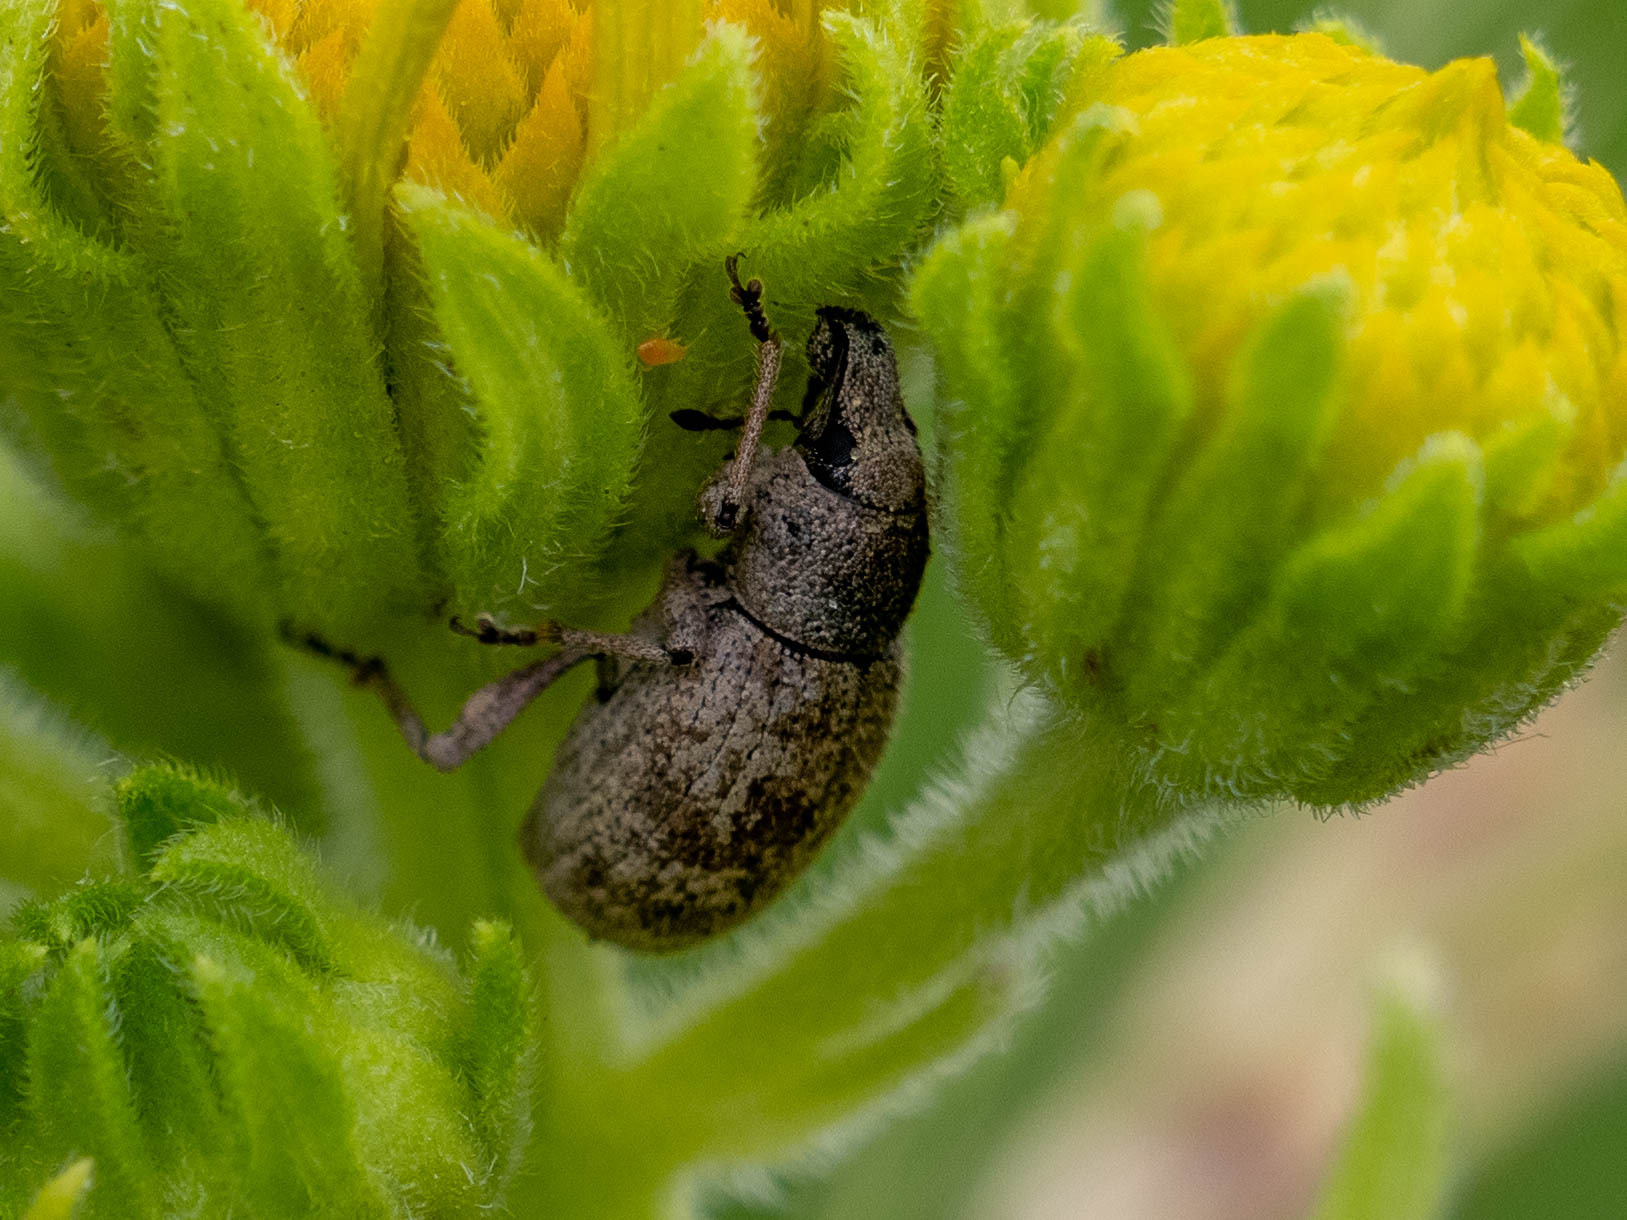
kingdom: Animalia
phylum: Arthropoda
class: Insecta
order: Coleoptera
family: Curculionidae
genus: Anametis
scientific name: Anametis granulata
